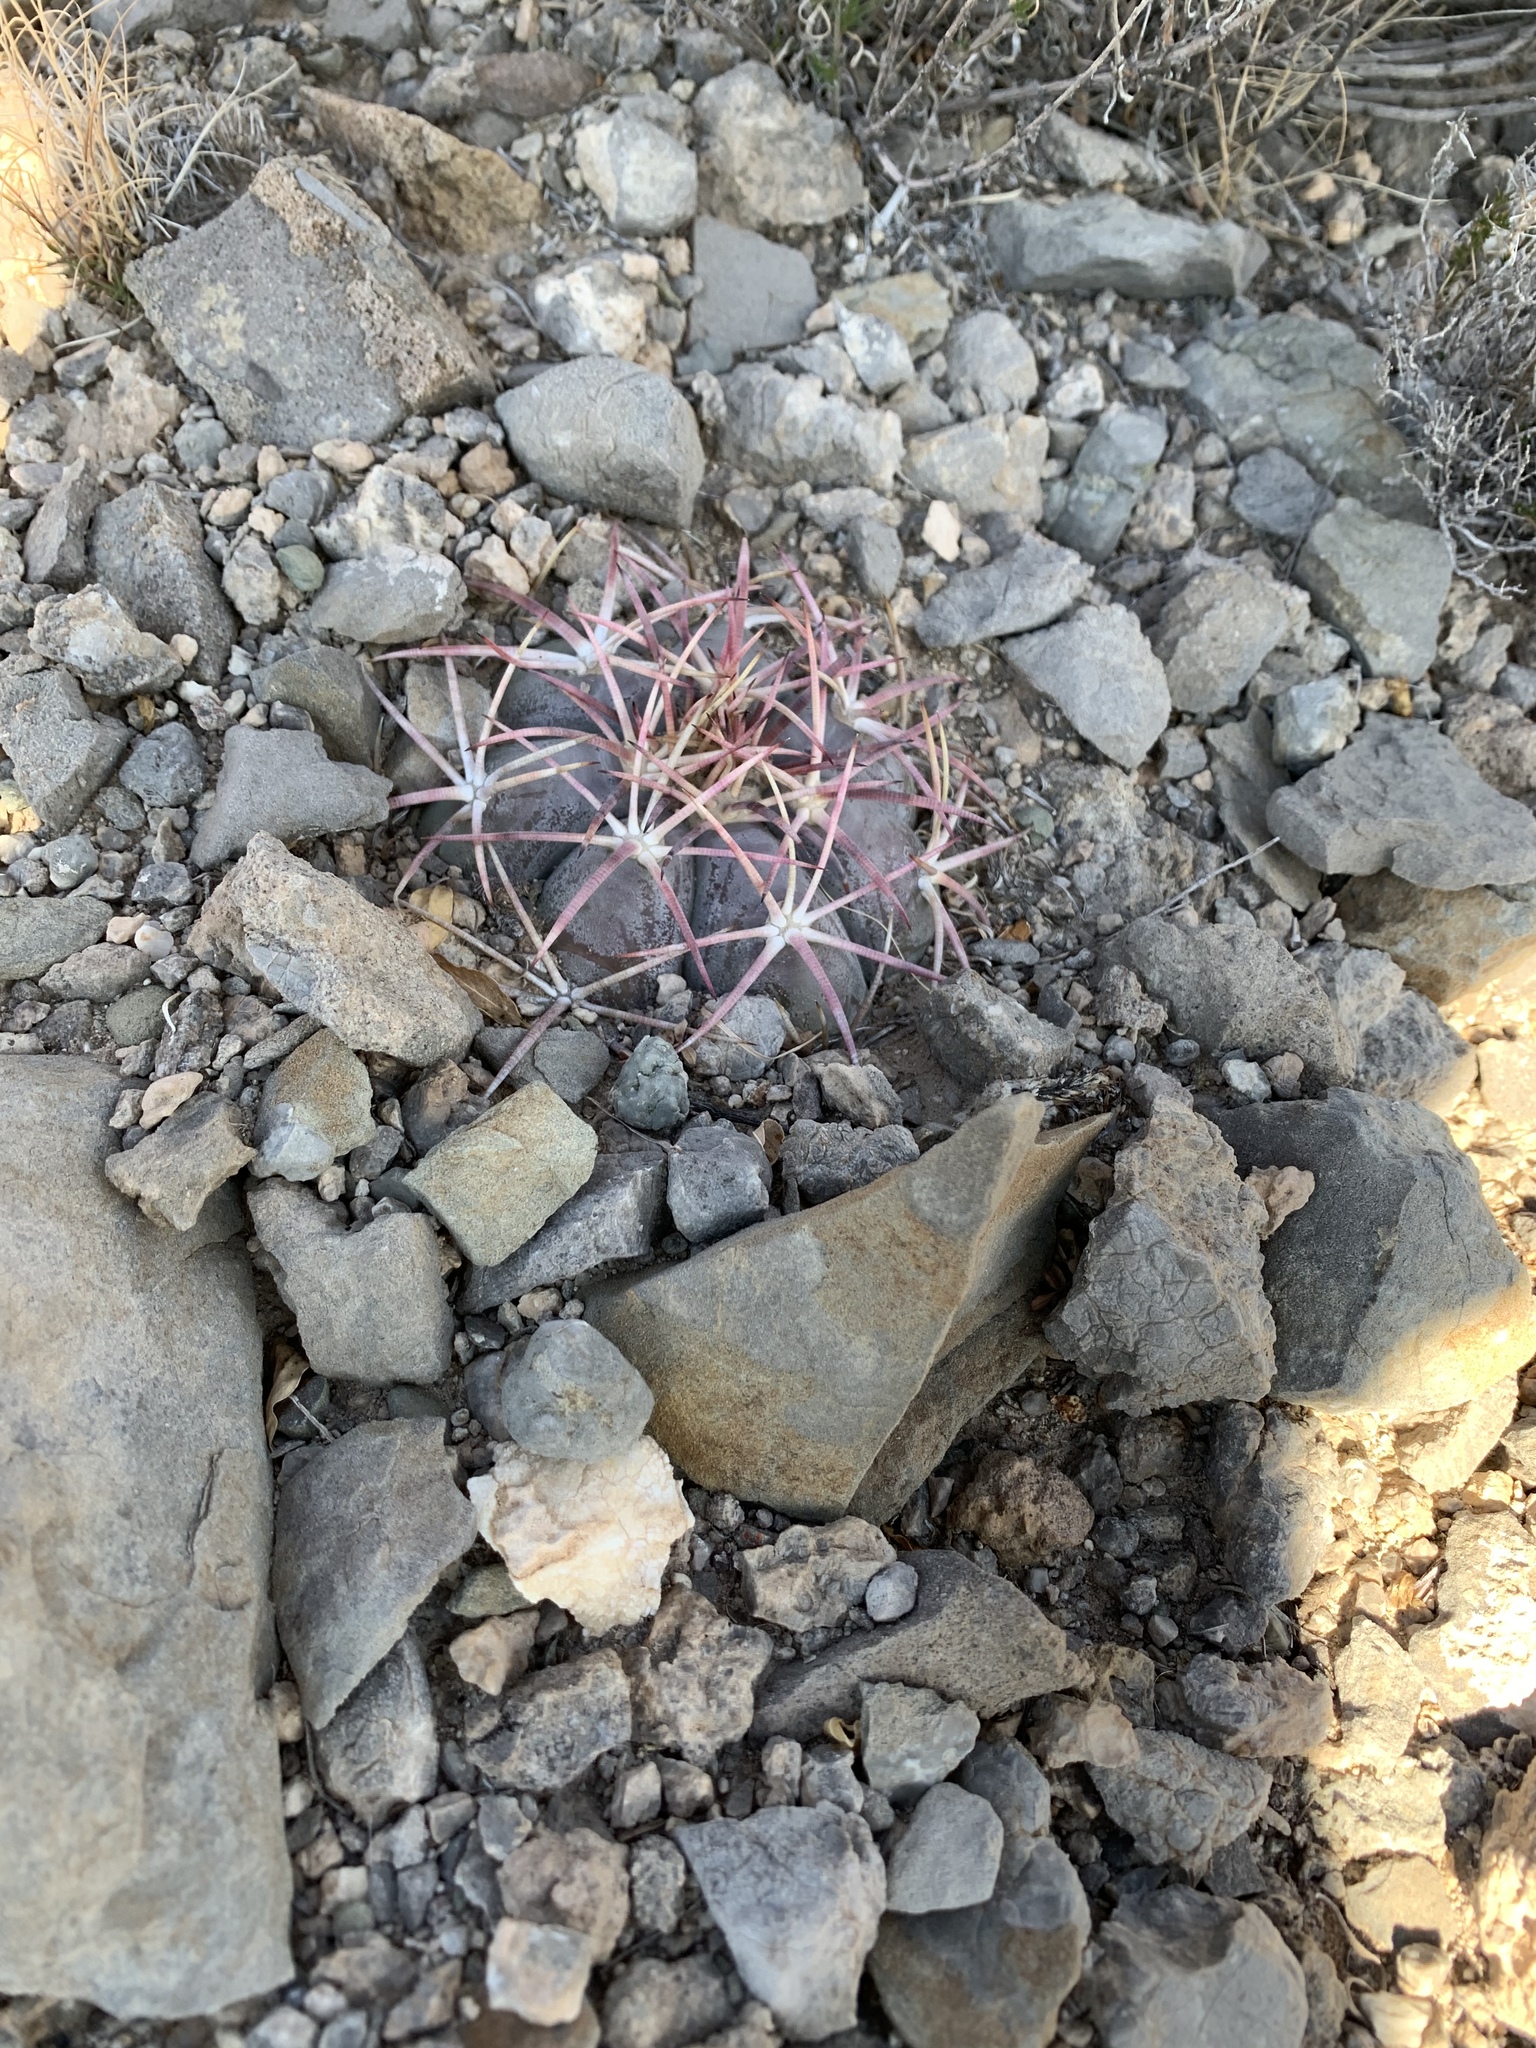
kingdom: Plantae
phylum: Tracheophyta
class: Magnoliopsida
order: Caryophyllales
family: Cactaceae
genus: Echinocactus
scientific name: Echinocactus horizonthalonius
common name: Devilshead
